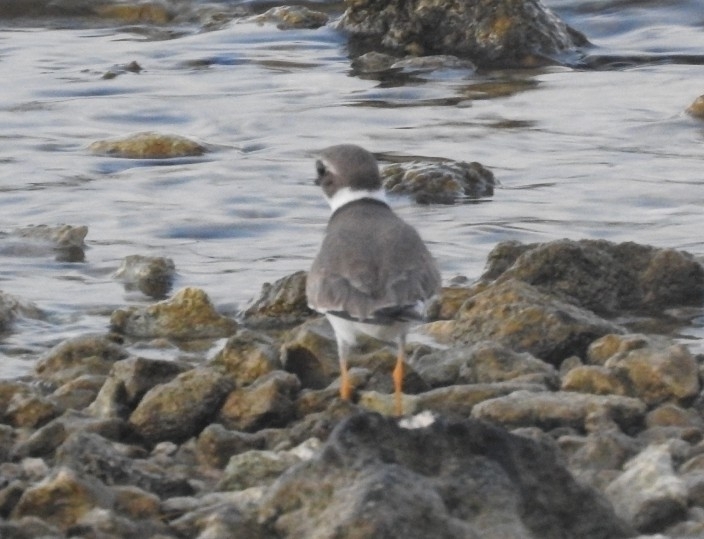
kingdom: Animalia
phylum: Chordata
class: Aves
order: Charadriiformes
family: Charadriidae
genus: Charadrius
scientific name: Charadrius semipalmatus
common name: Semipalmated plover
